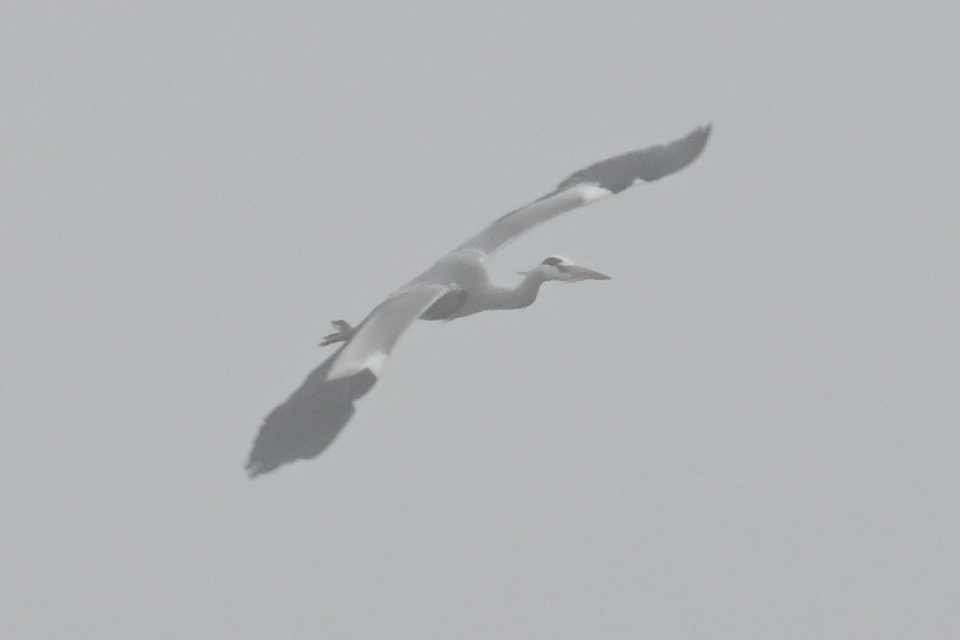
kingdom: Animalia
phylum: Chordata
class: Aves
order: Pelecaniformes
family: Ardeidae
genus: Ardea
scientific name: Ardea cinerea
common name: Grey heron
